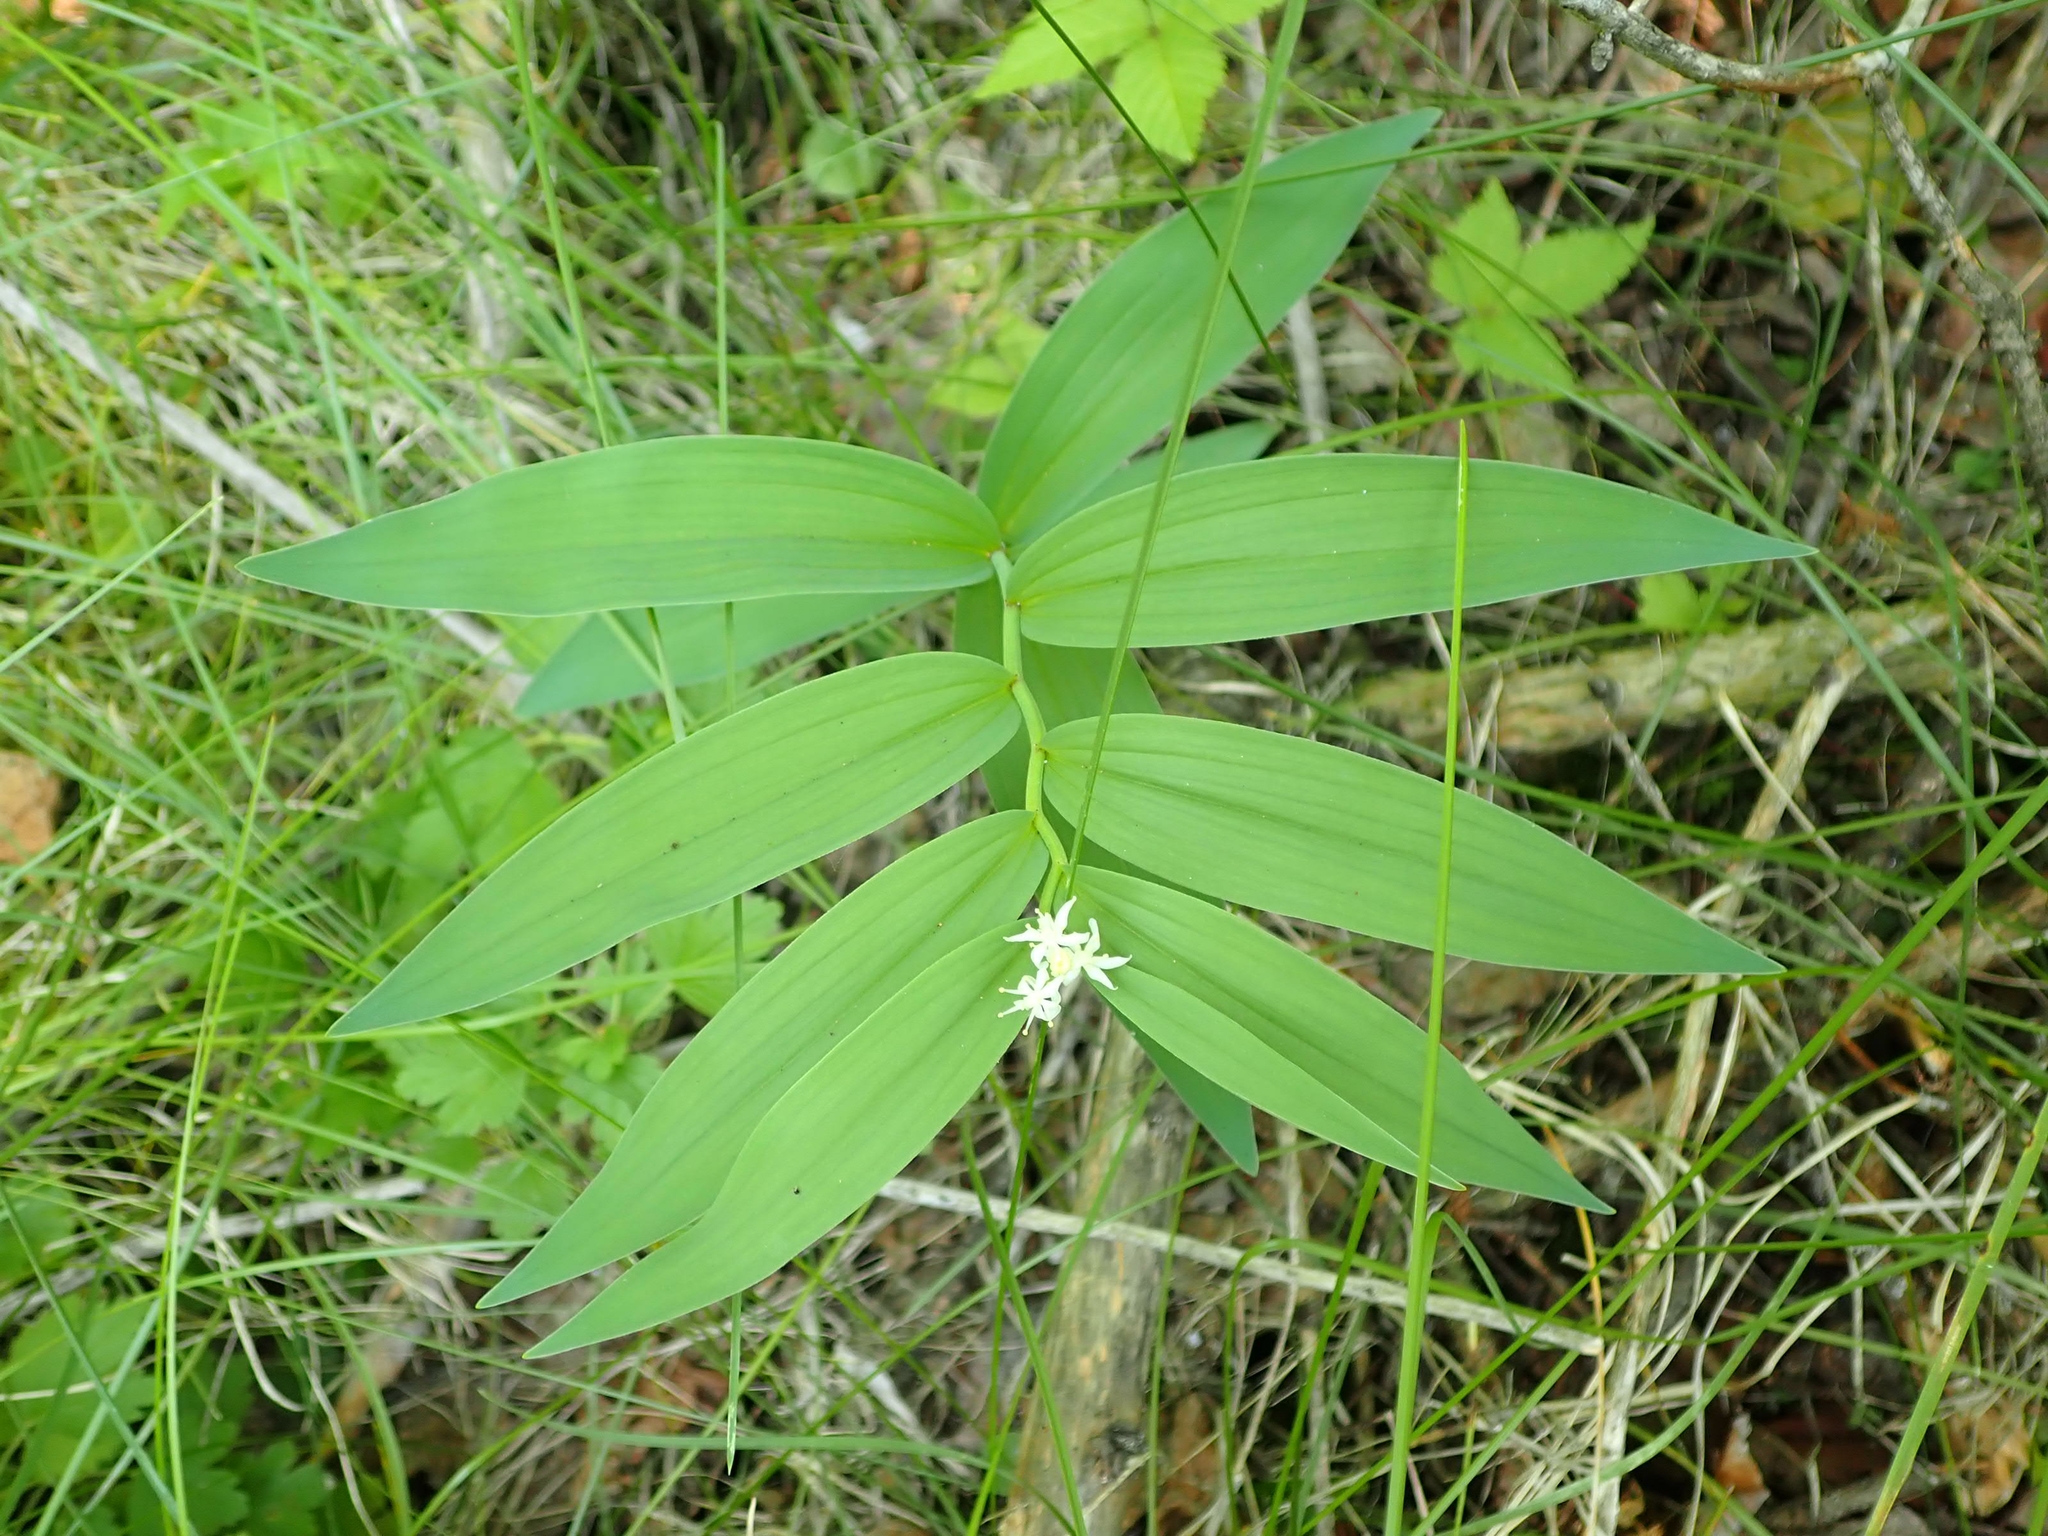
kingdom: Plantae
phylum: Tracheophyta
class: Liliopsida
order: Asparagales
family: Asparagaceae
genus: Maianthemum
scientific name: Maianthemum stellatum
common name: Little false solomon's seal
